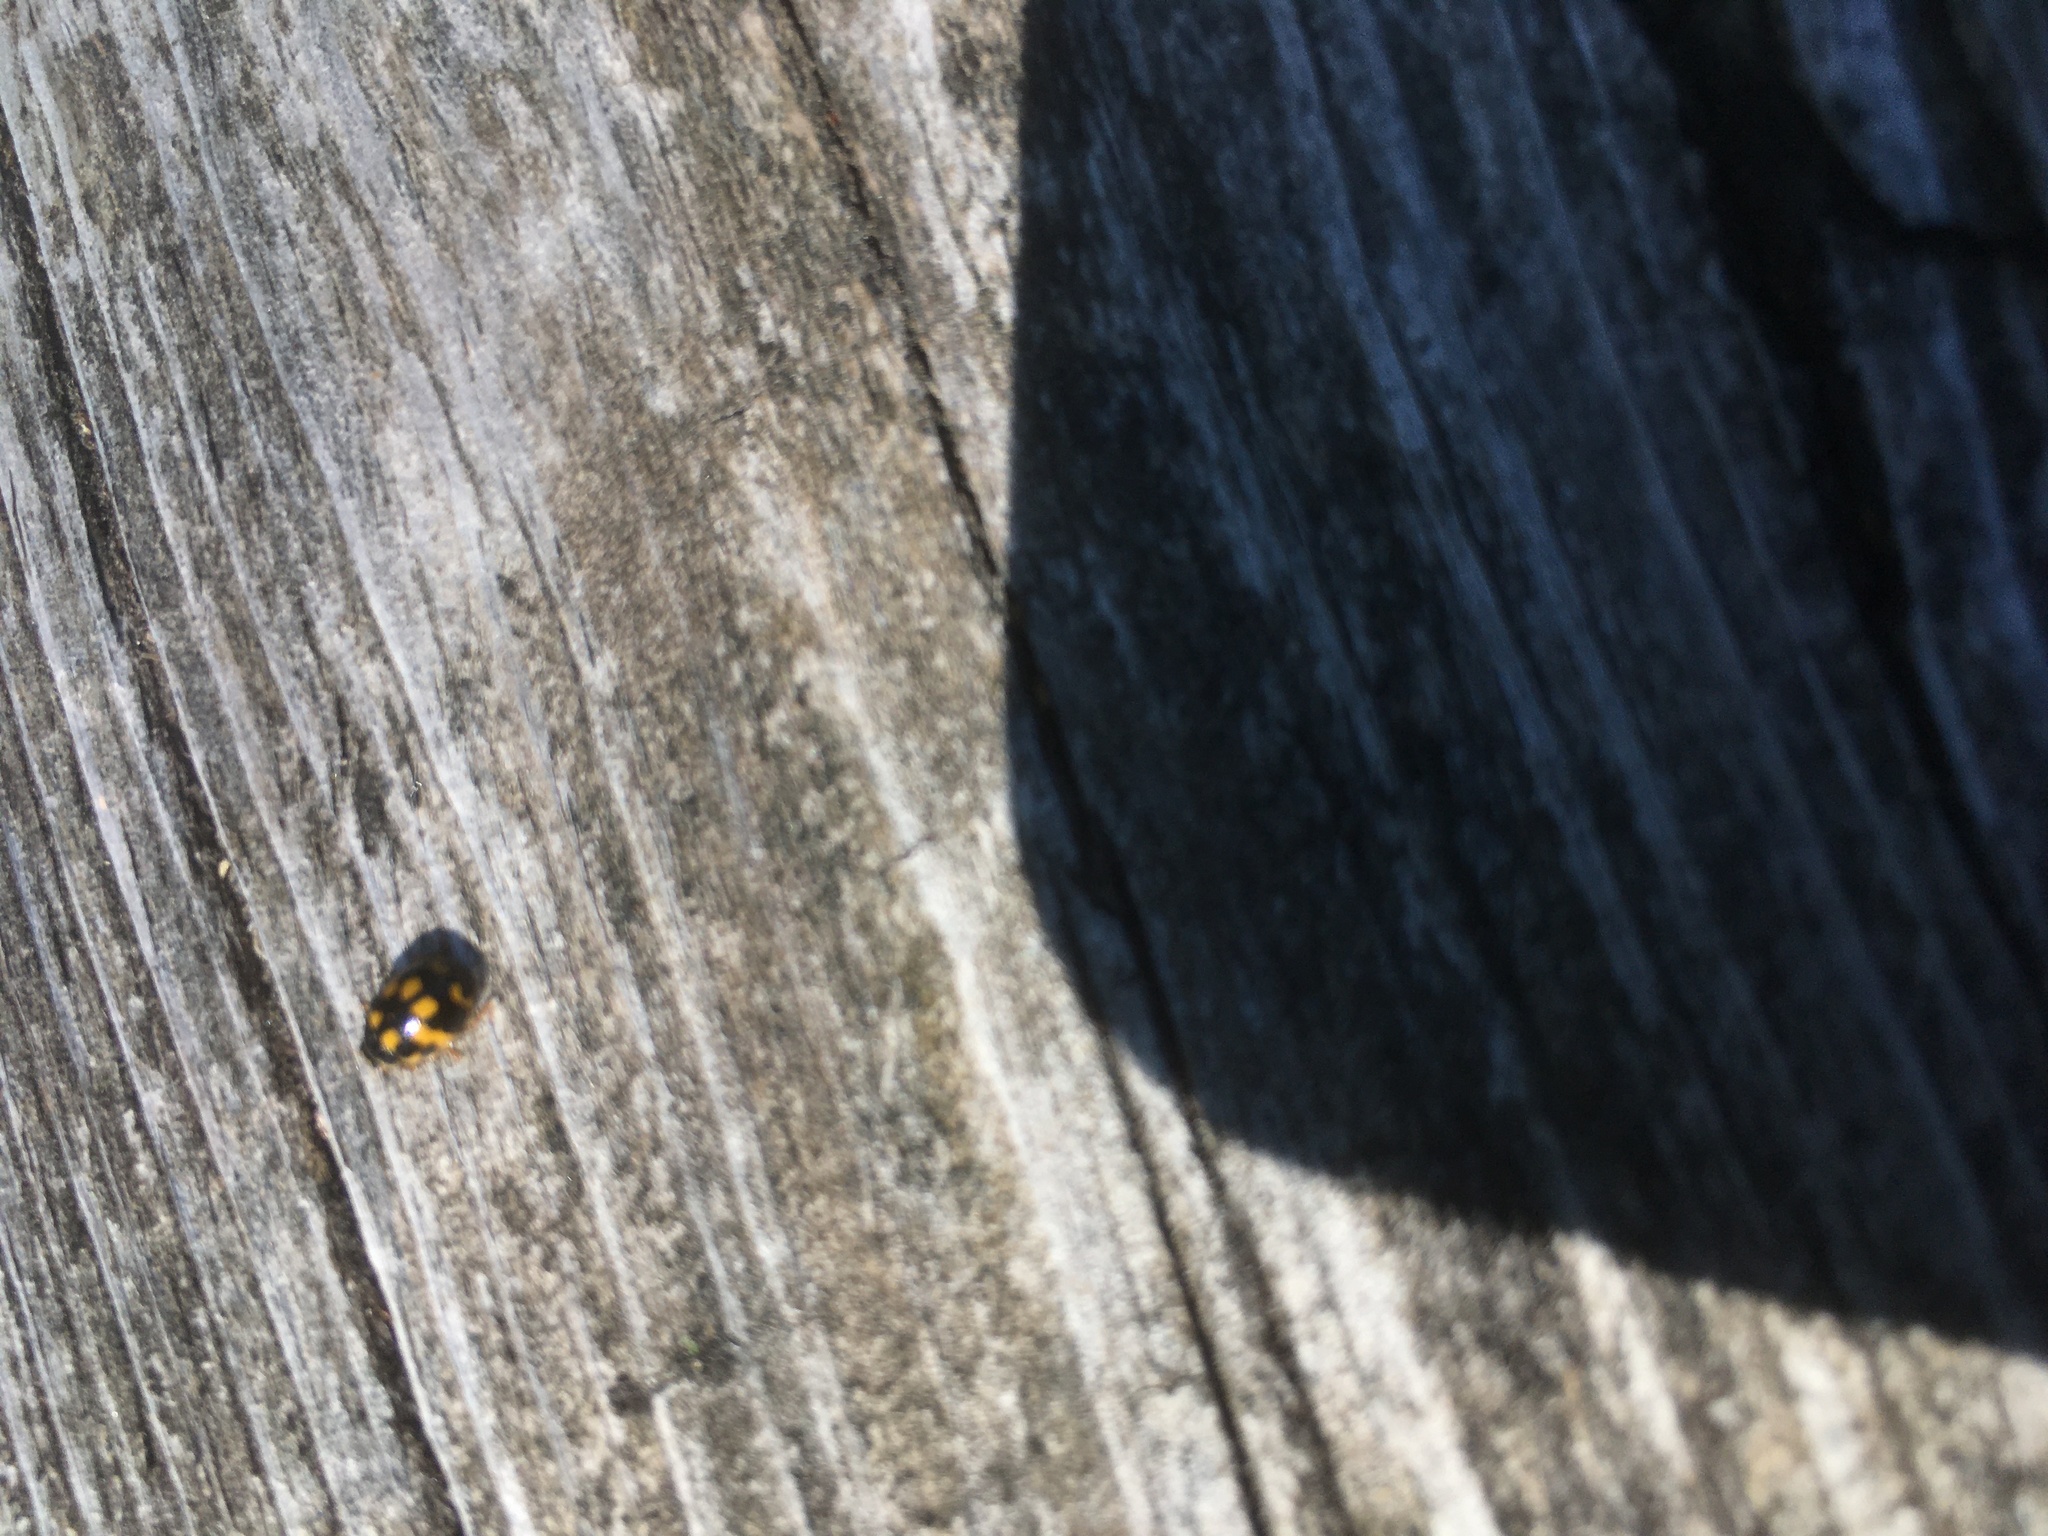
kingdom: Animalia
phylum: Arthropoda
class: Insecta
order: Coleoptera
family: Coccinellidae
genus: Propylaea
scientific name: Propylaea quatuordecimpunctata
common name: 14-spotted ladybird beetle
